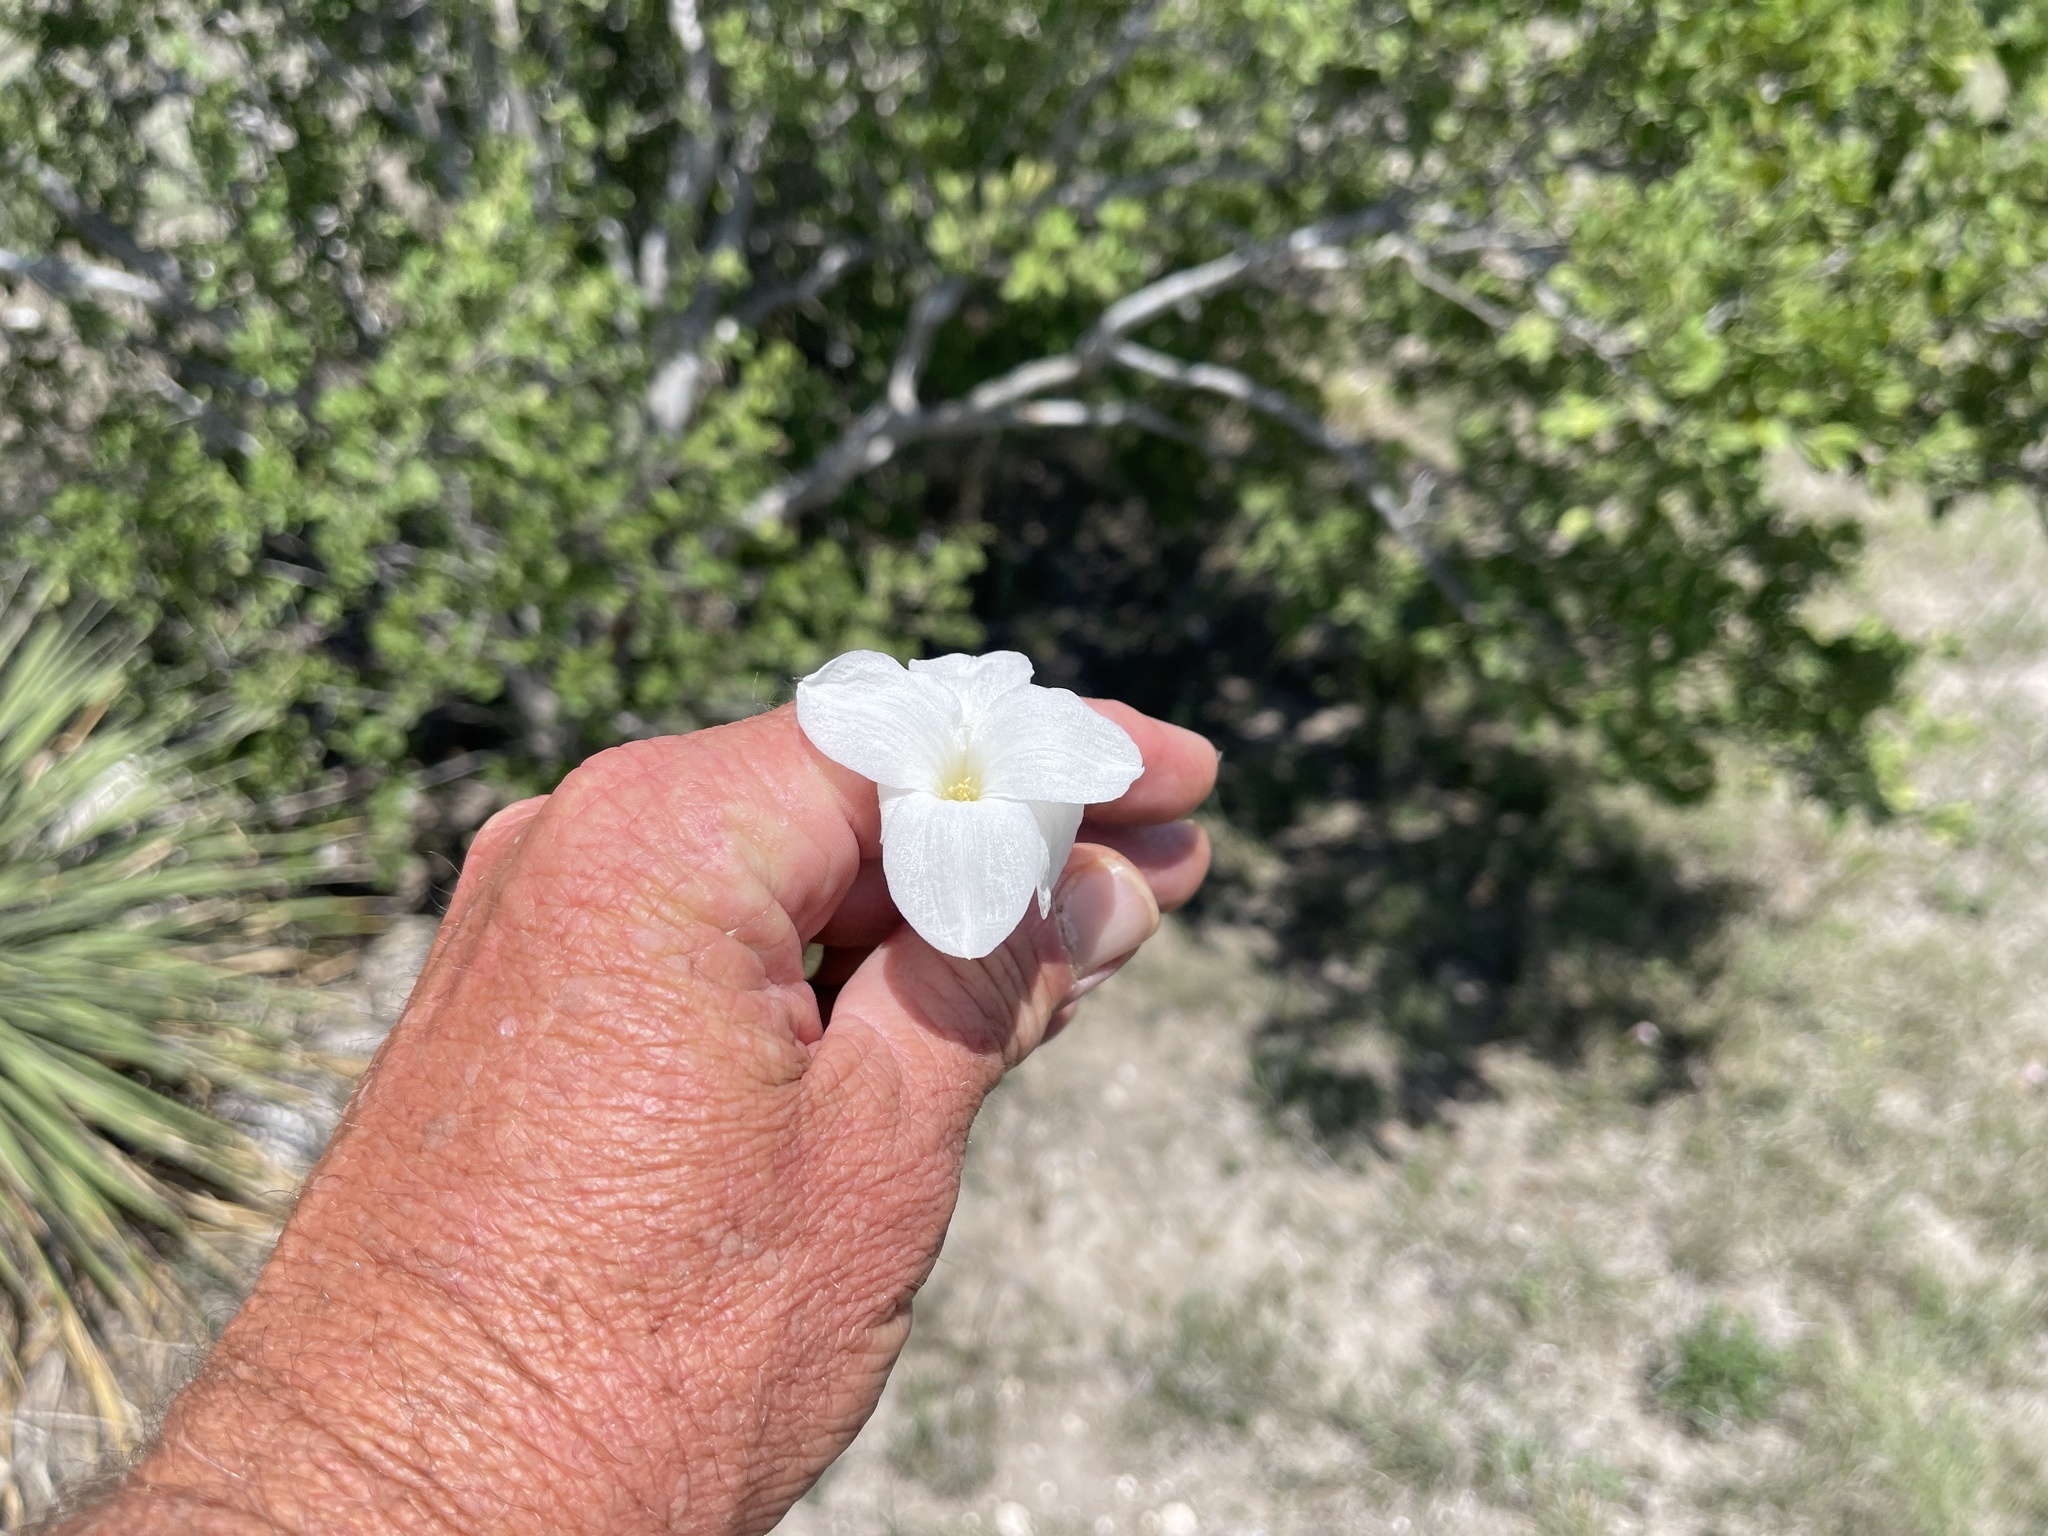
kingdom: Plantae
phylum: Tracheophyta
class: Liliopsida
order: Asparagales
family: Amaryllidaceae
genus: Zephyranthes
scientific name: Zephyranthes drummondii
